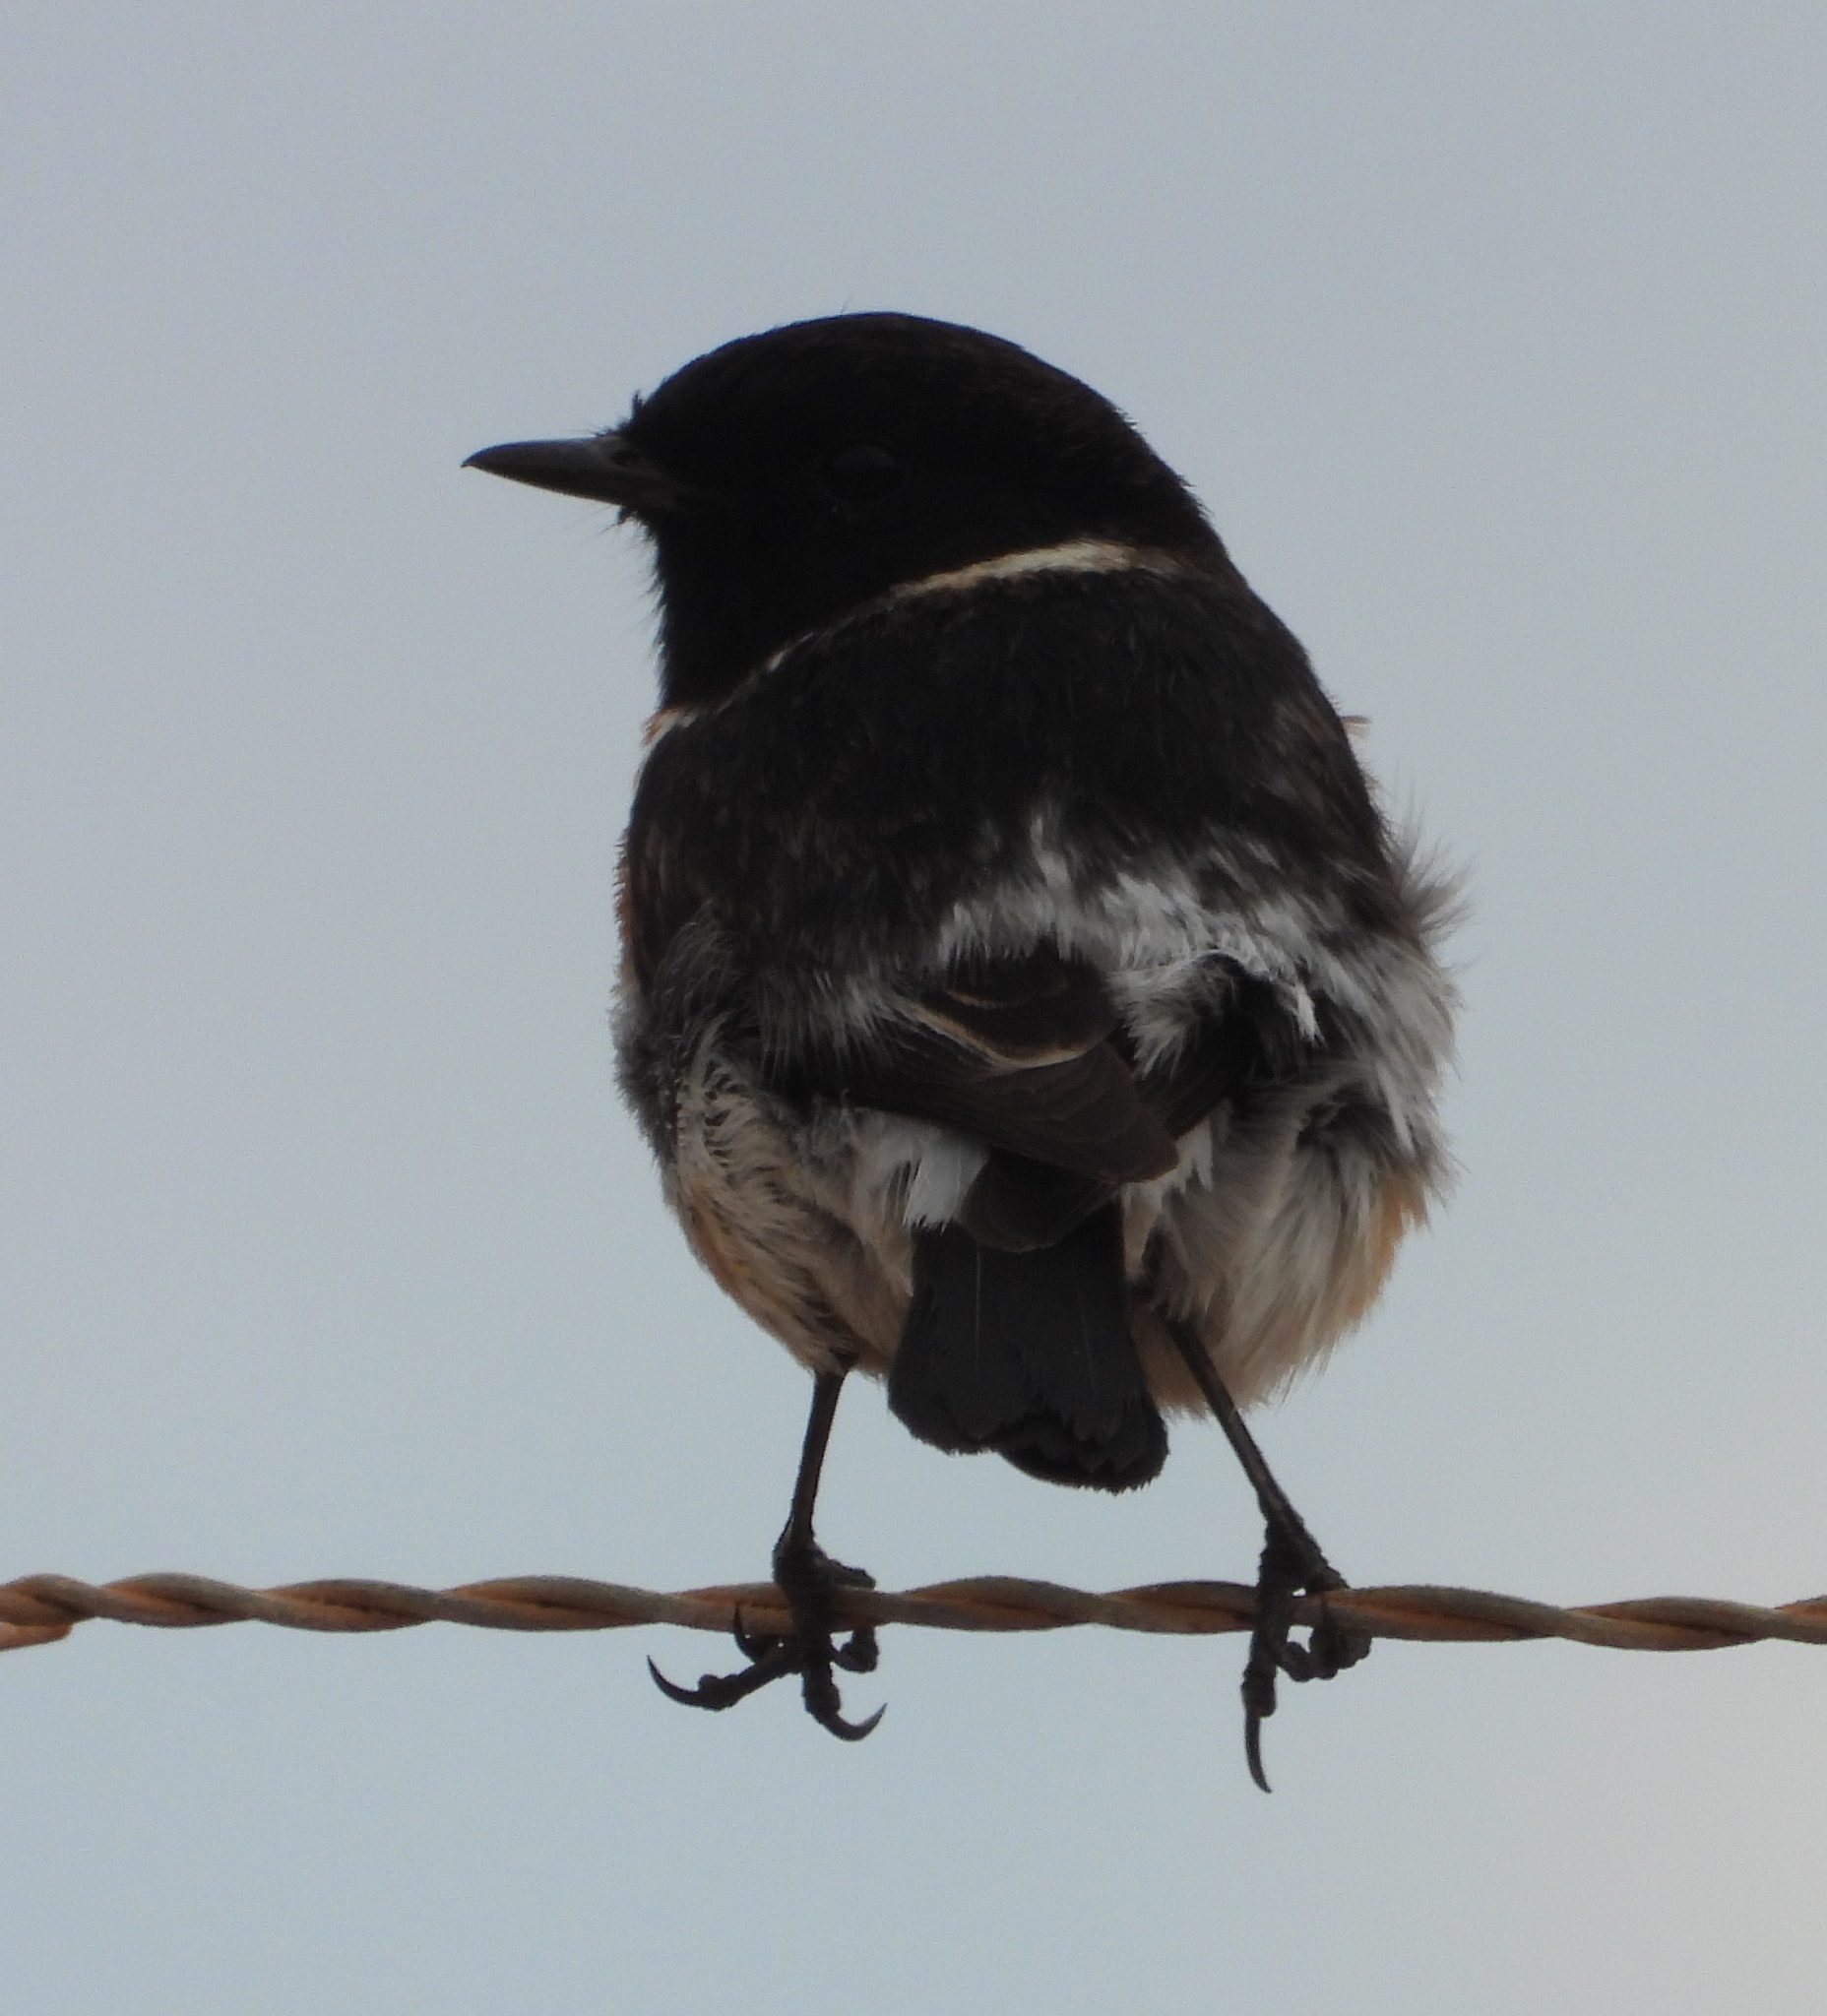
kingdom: Animalia
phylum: Chordata
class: Aves
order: Passeriformes
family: Muscicapidae
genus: Saxicola
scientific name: Saxicola torquatus
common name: African stonechat
